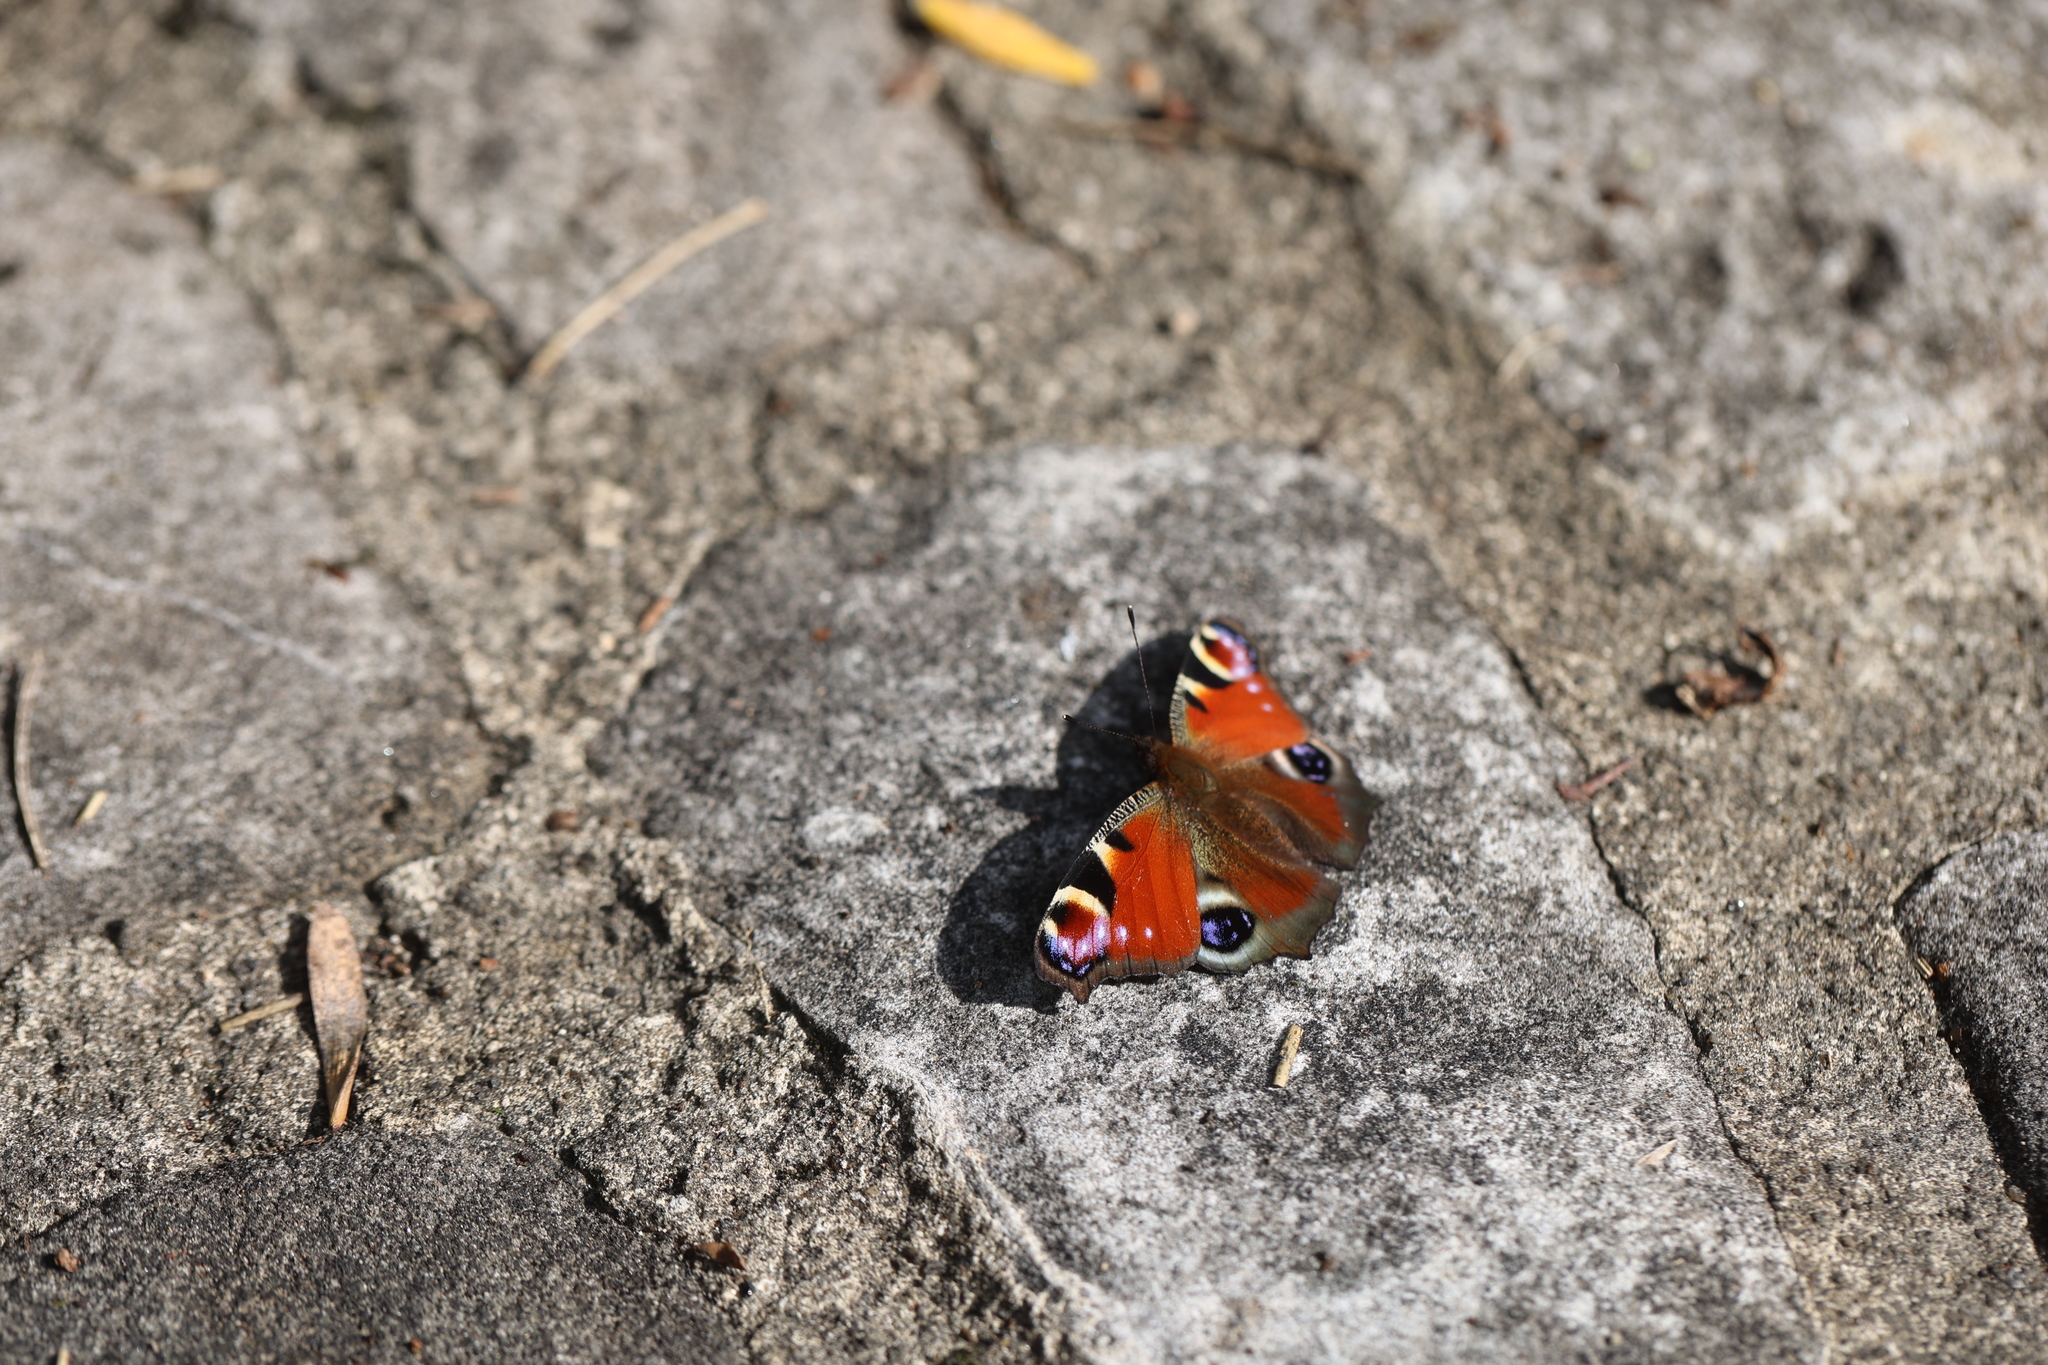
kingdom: Animalia
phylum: Arthropoda
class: Insecta
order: Lepidoptera
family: Nymphalidae
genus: Aglais
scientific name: Aglais io
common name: Peacock
